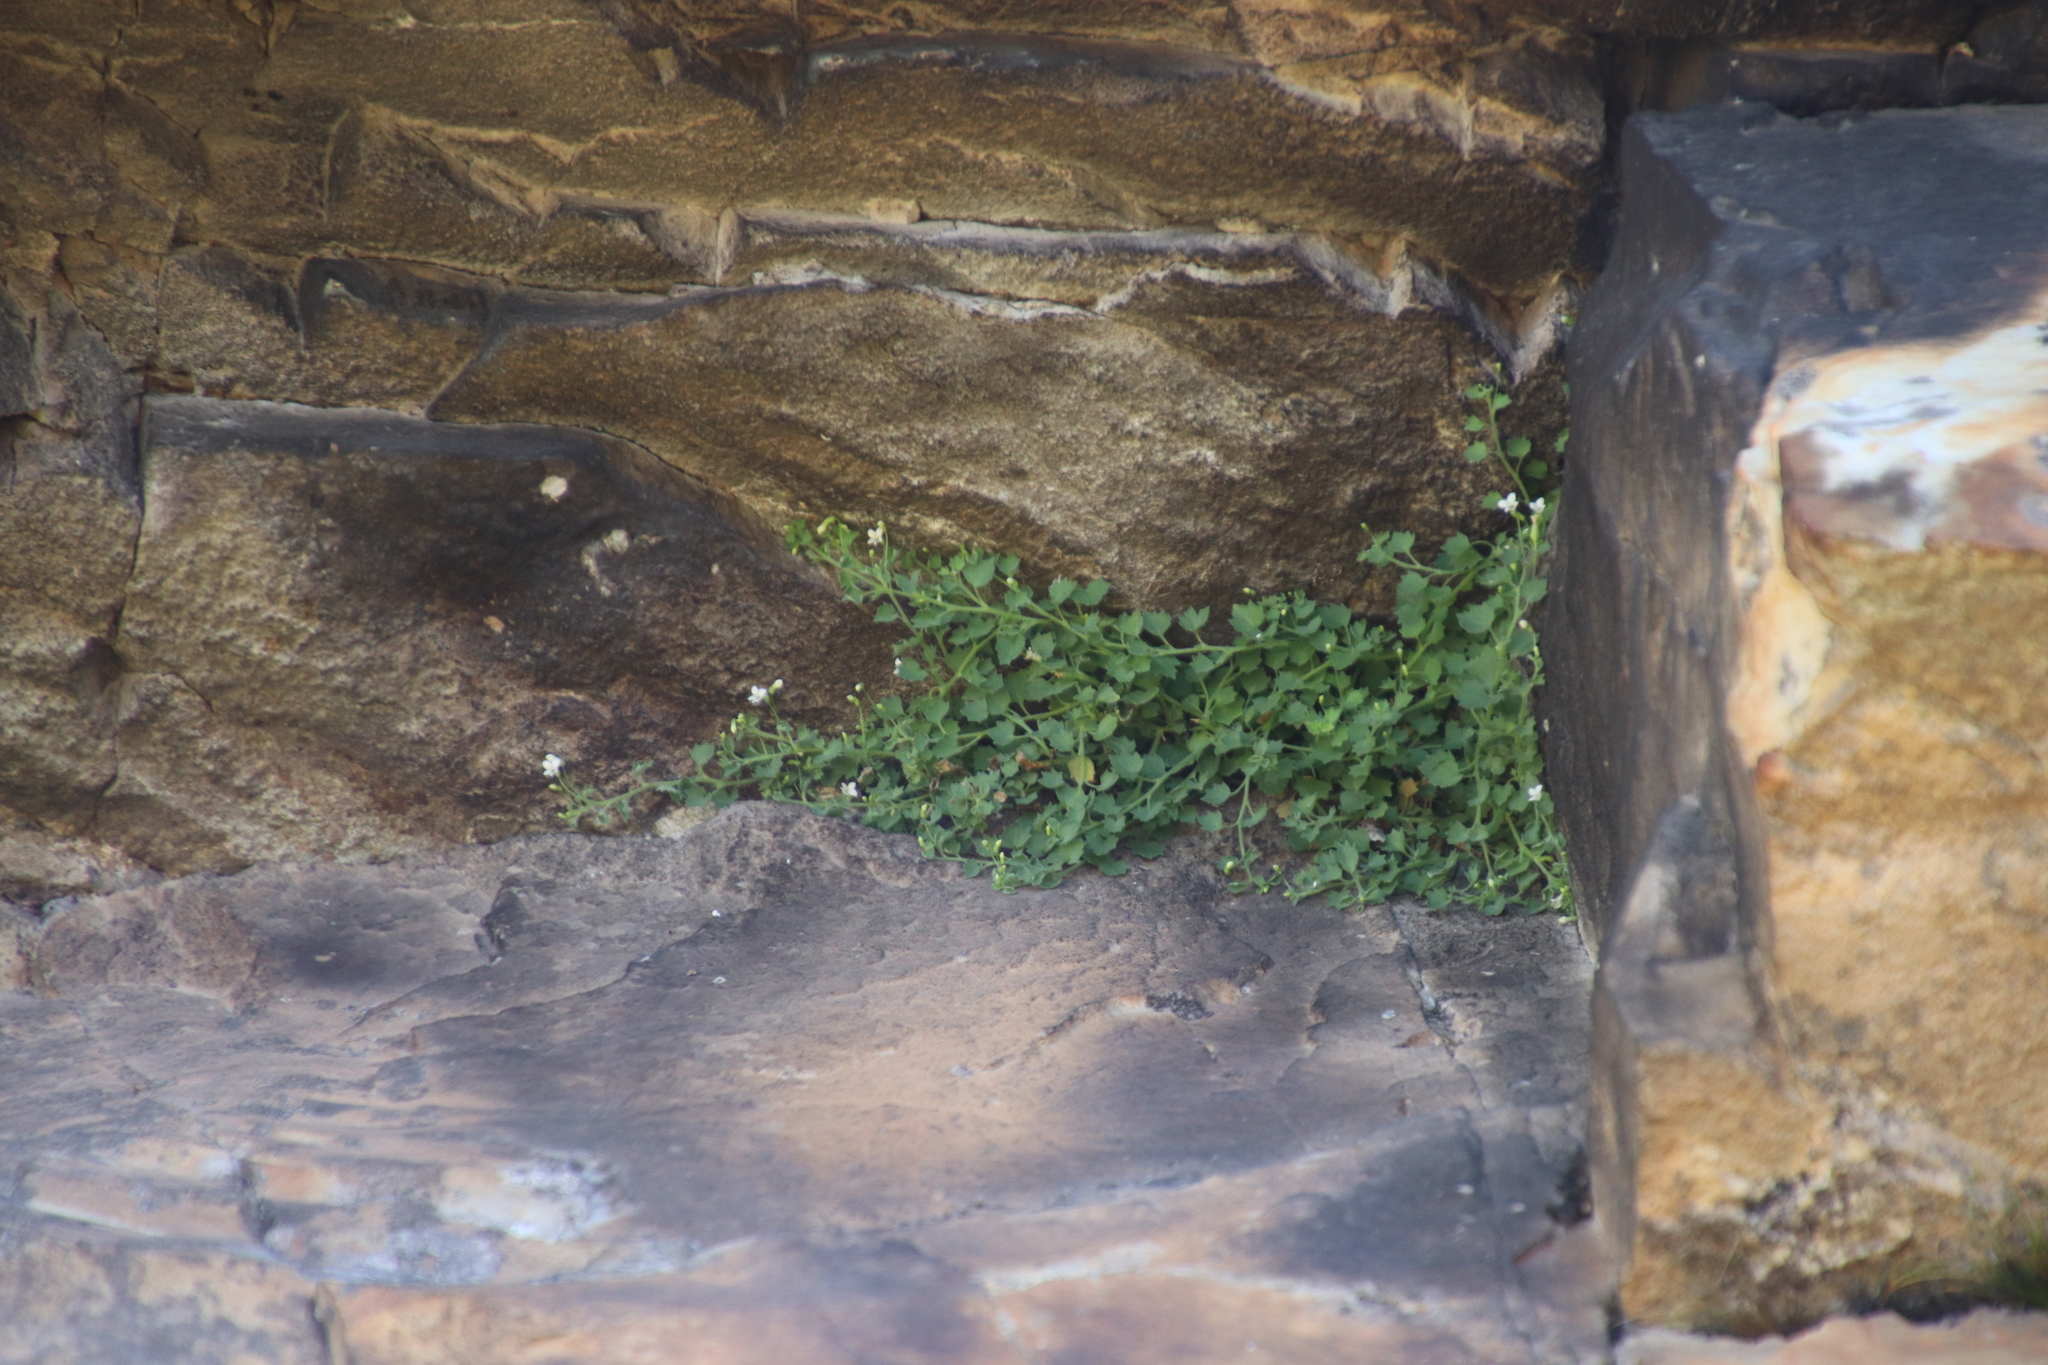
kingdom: Plantae
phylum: Tracheophyta
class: Magnoliopsida
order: Asterales
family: Campanulaceae
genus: Wimmerella
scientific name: Wimmerella hedyotidea
